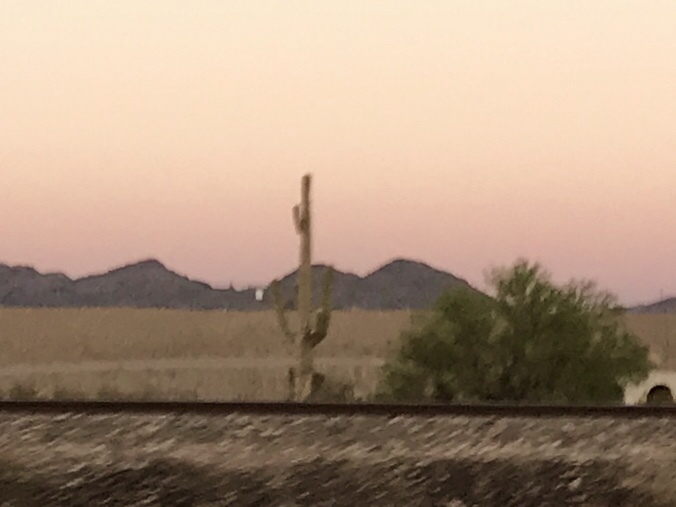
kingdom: Plantae
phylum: Tracheophyta
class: Magnoliopsida
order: Caryophyllales
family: Cactaceae
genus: Carnegiea
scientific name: Carnegiea gigantea
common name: Saguaro
